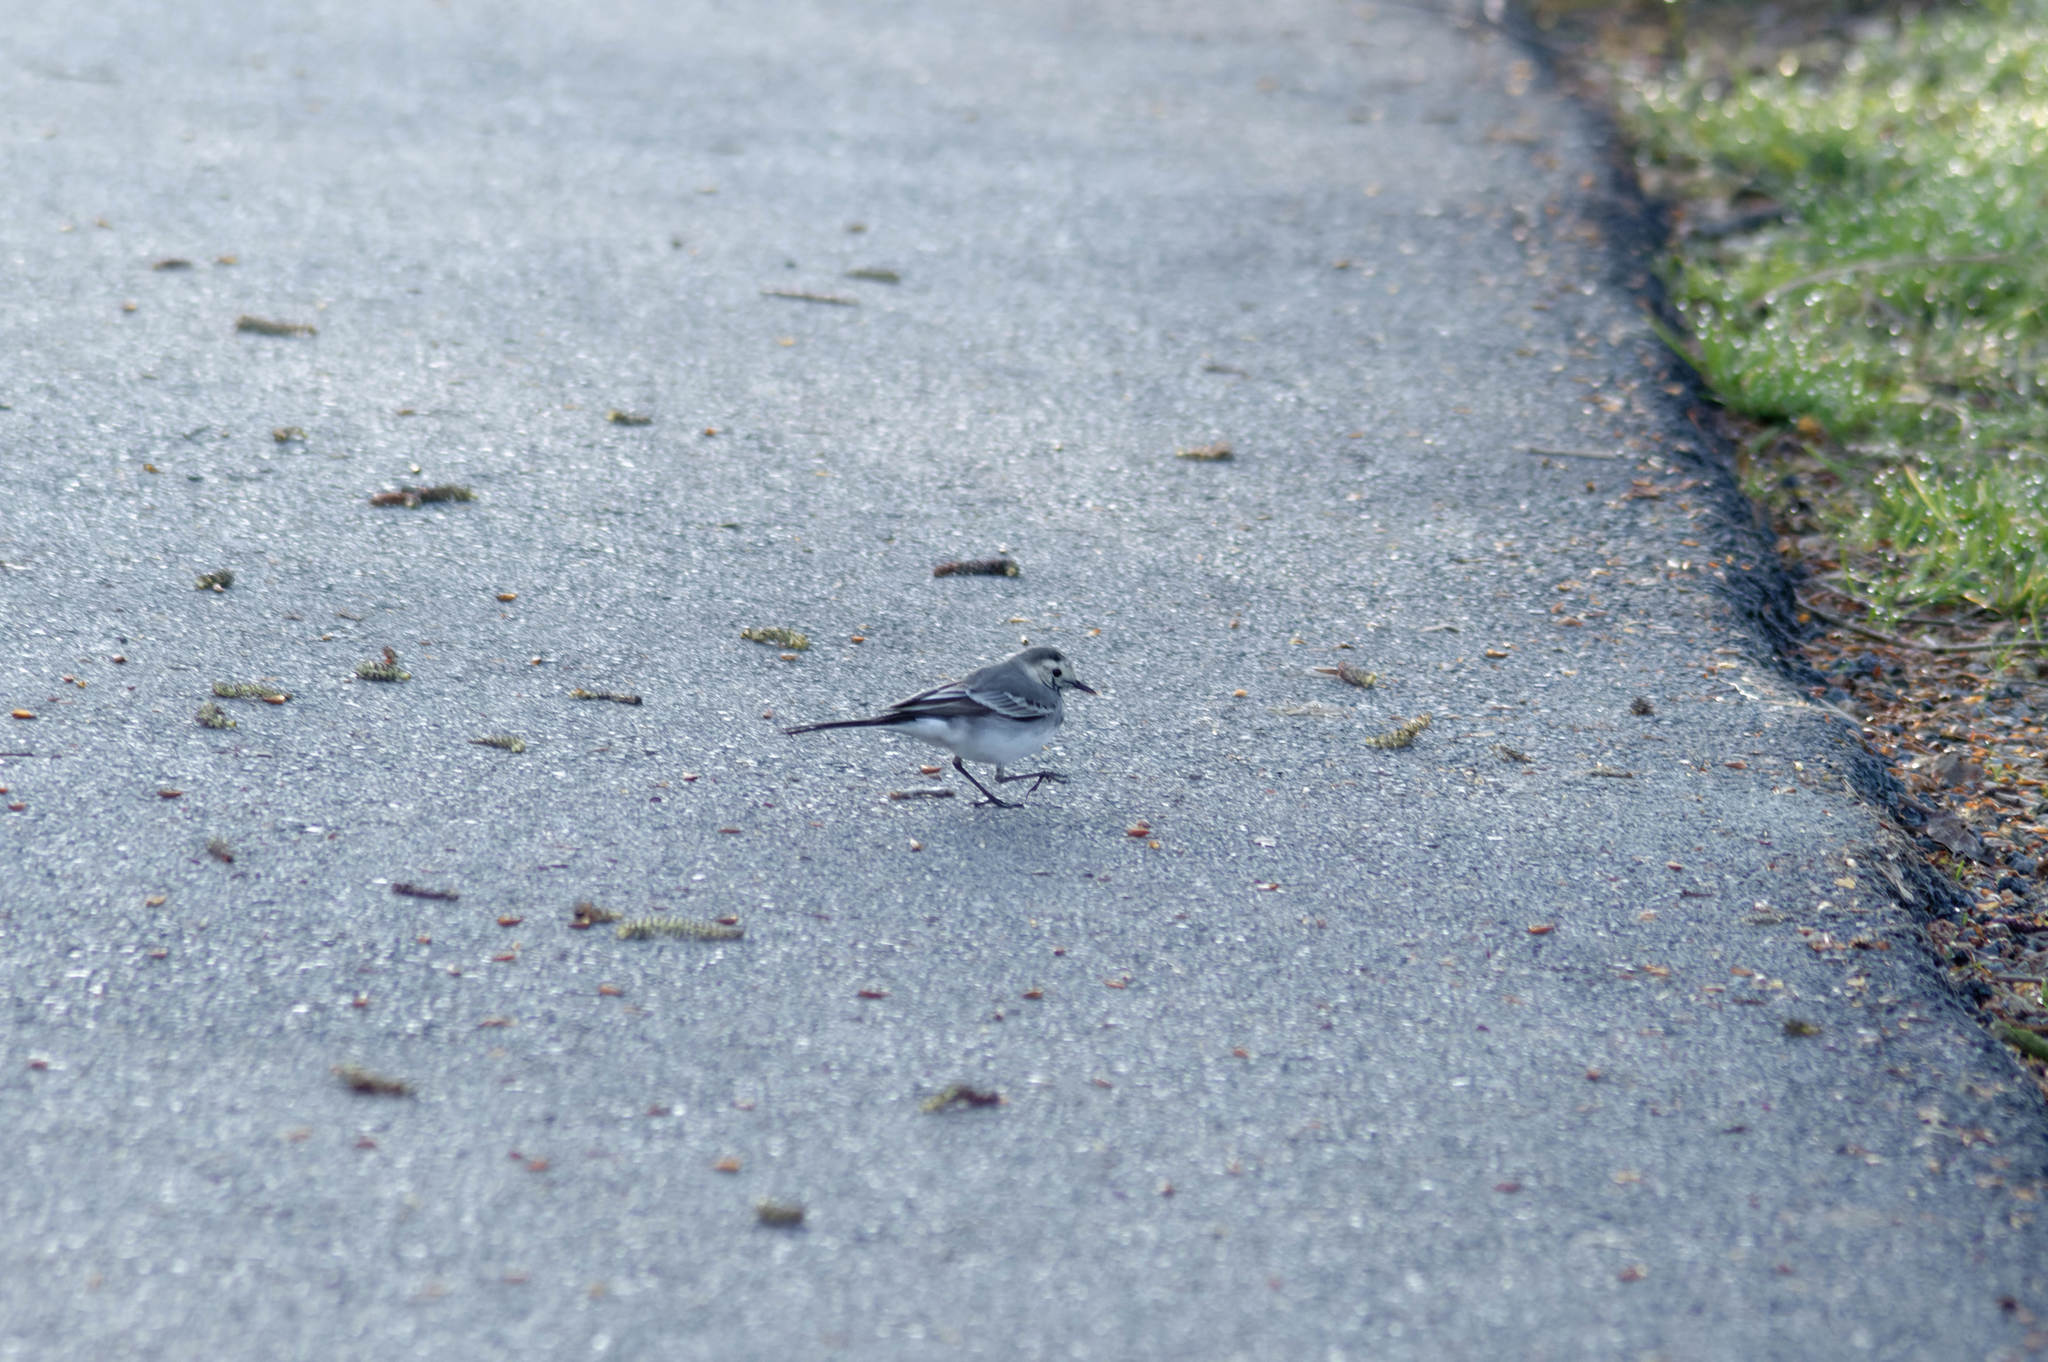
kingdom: Animalia
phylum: Chordata
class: Aves
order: Passeriformes
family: Motacillidae
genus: Motacilla
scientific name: Motacilla alba
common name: White wagtail
